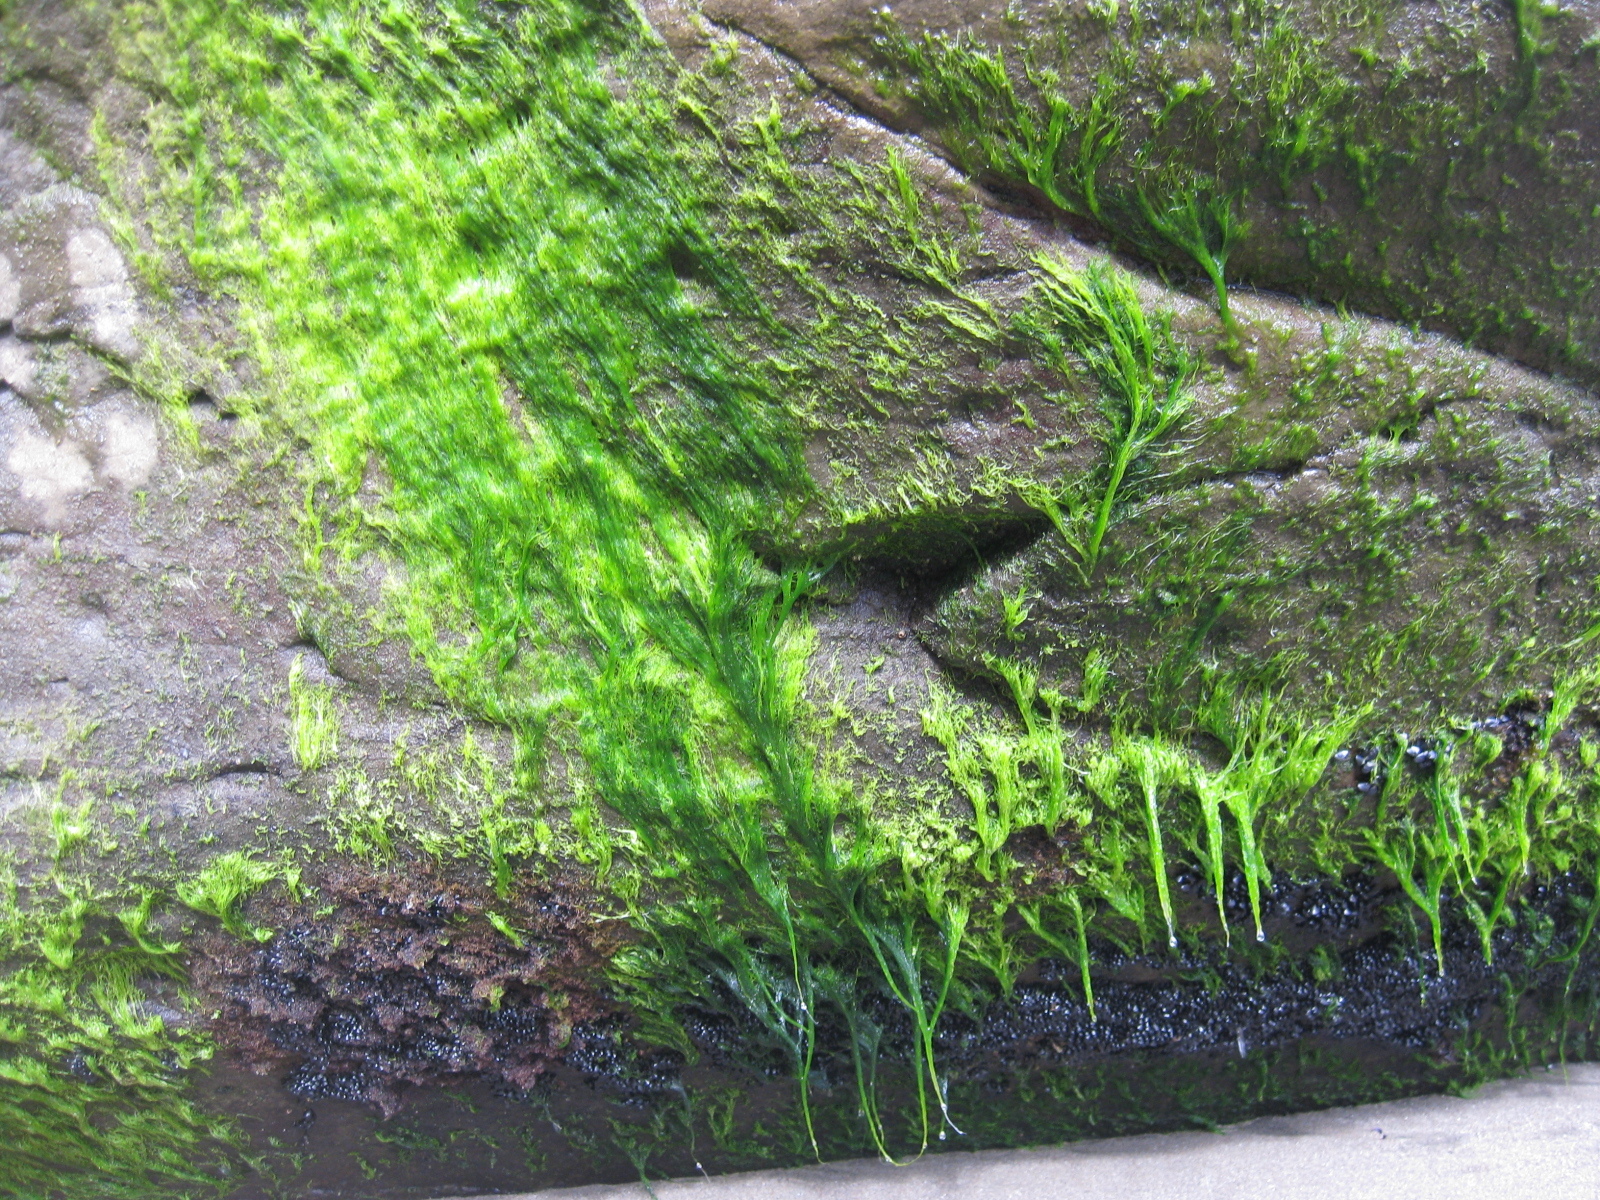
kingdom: Plantae
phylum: Chlorophyta
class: Ulvophyceae
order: Ulvales
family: Ulvaceae
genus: Ulva
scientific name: Ulva compressa
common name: Thread weed
